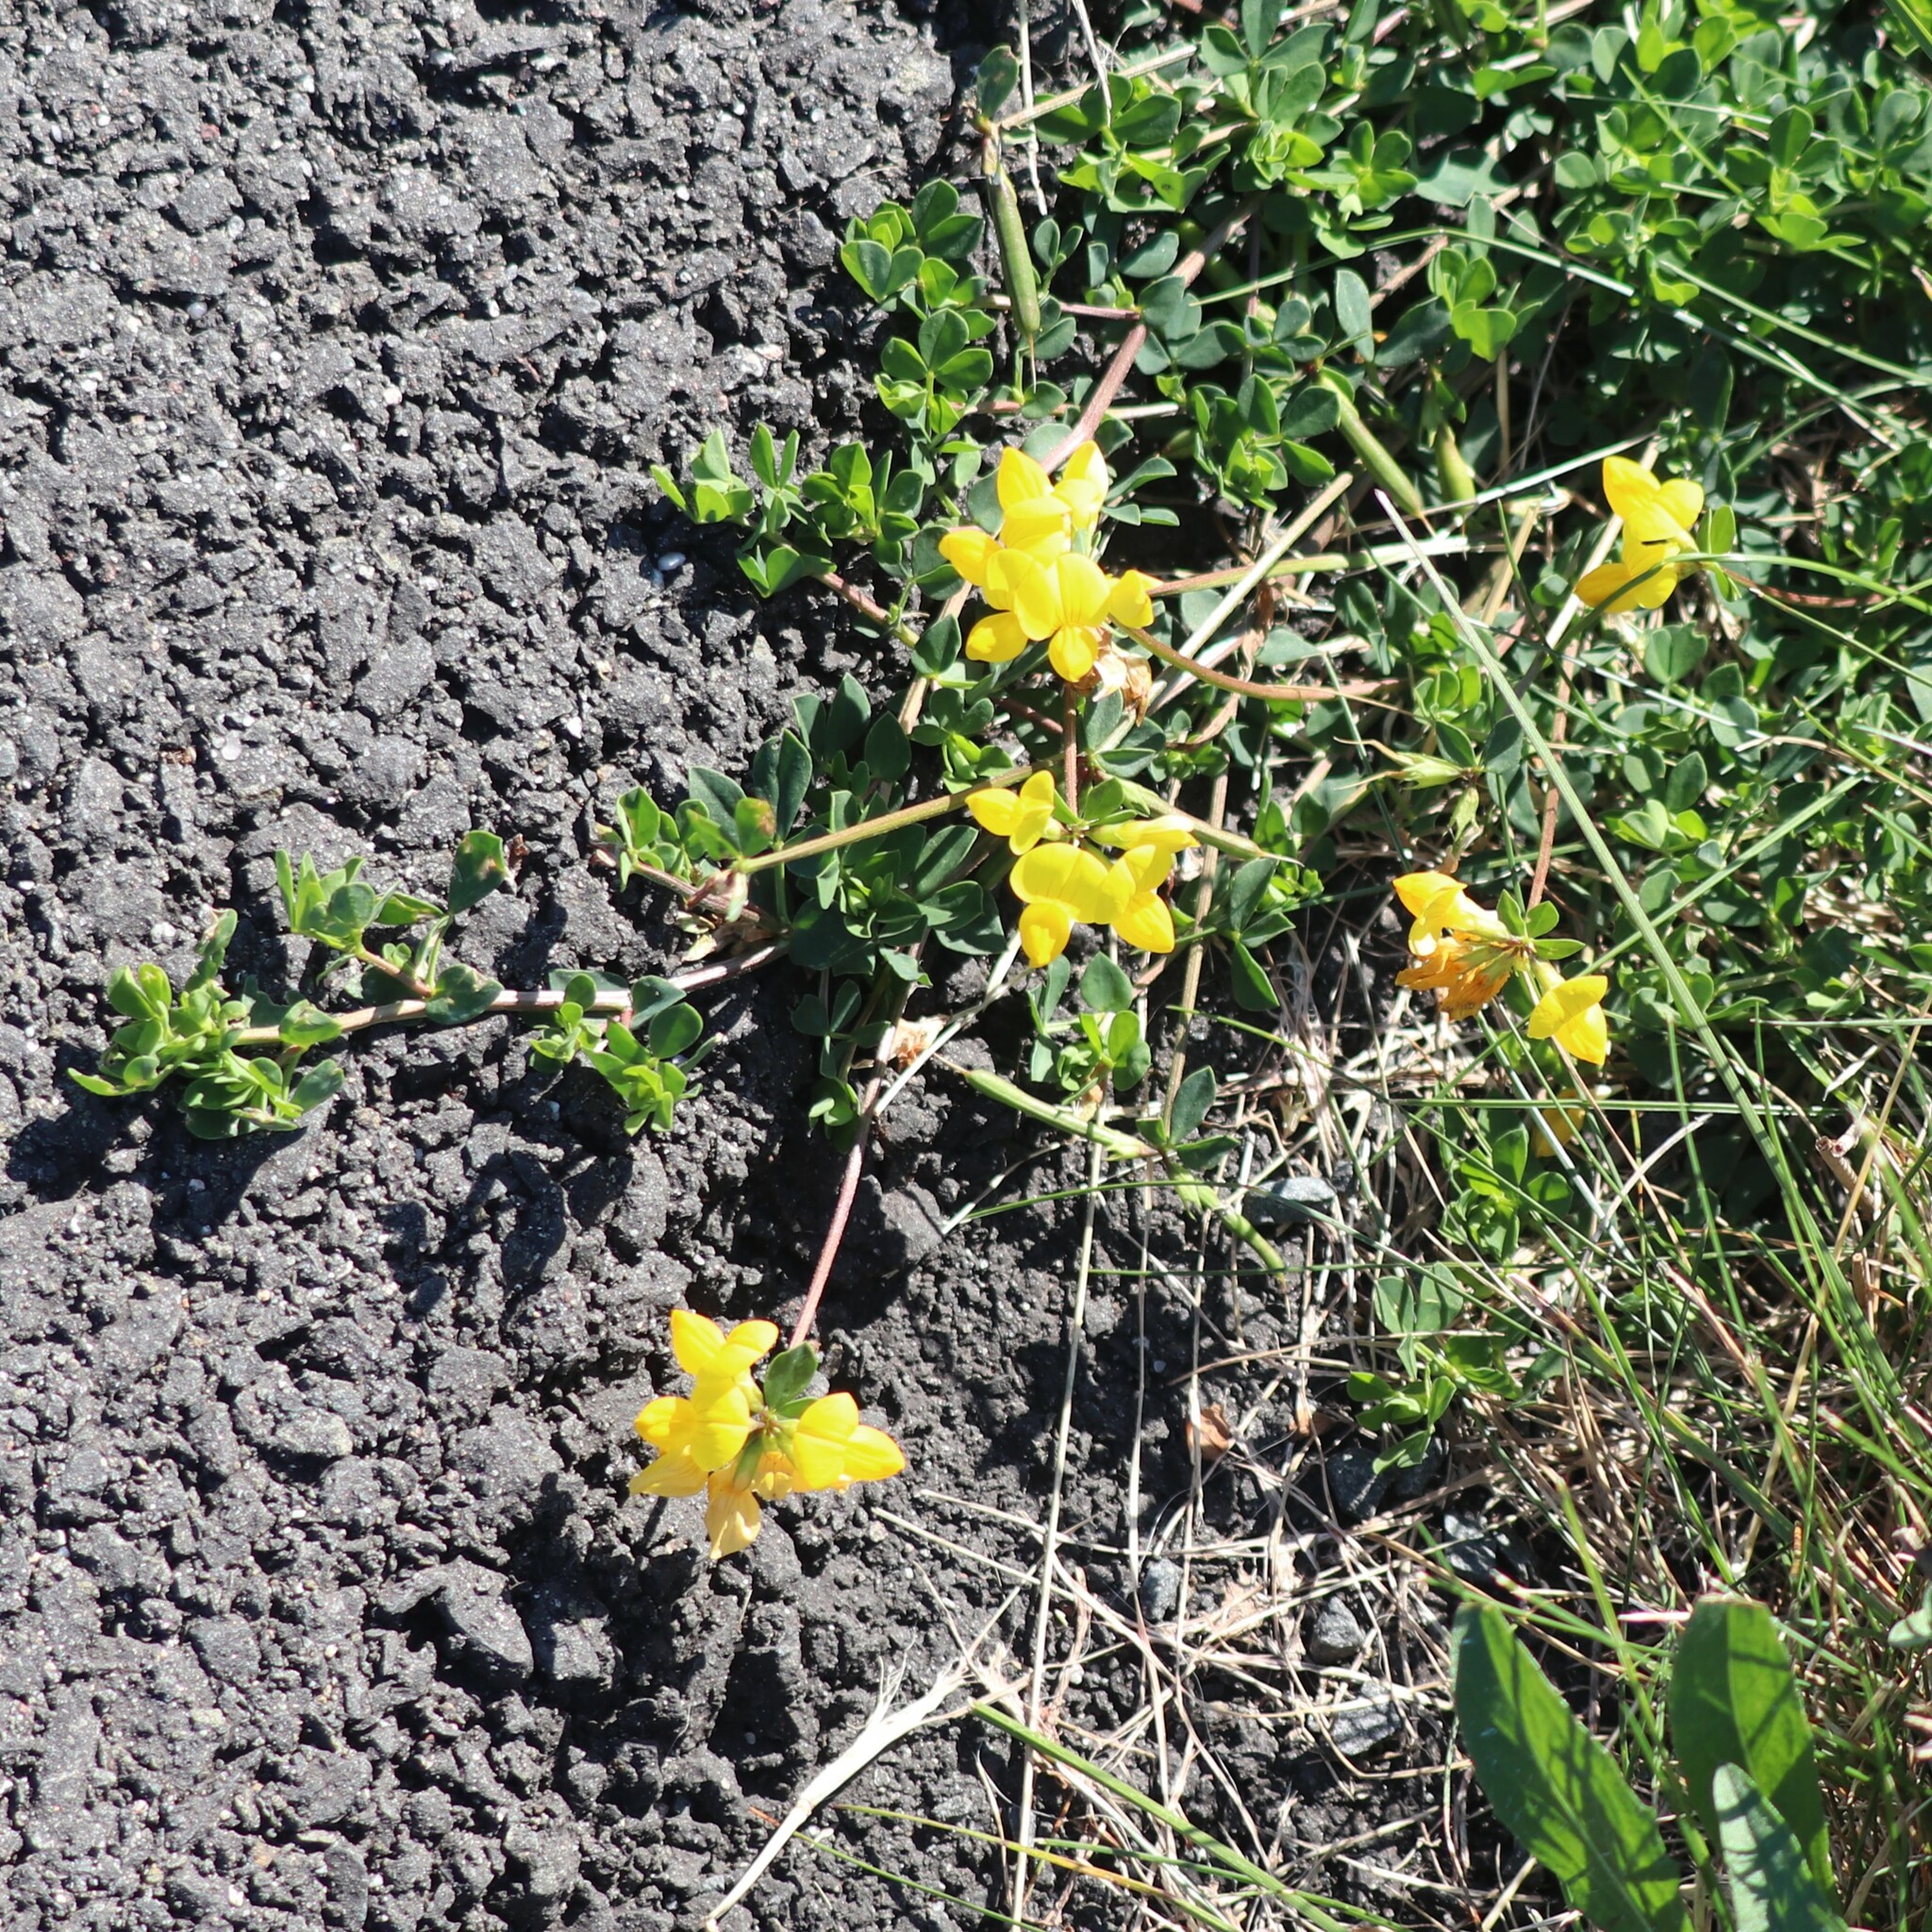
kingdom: Plantae
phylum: Tracheophyta
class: Magnoliopsida
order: Fabales
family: Fabaceae
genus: Lotus
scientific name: Lotus corniculatus
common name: Common bird's-foot-trefoil
